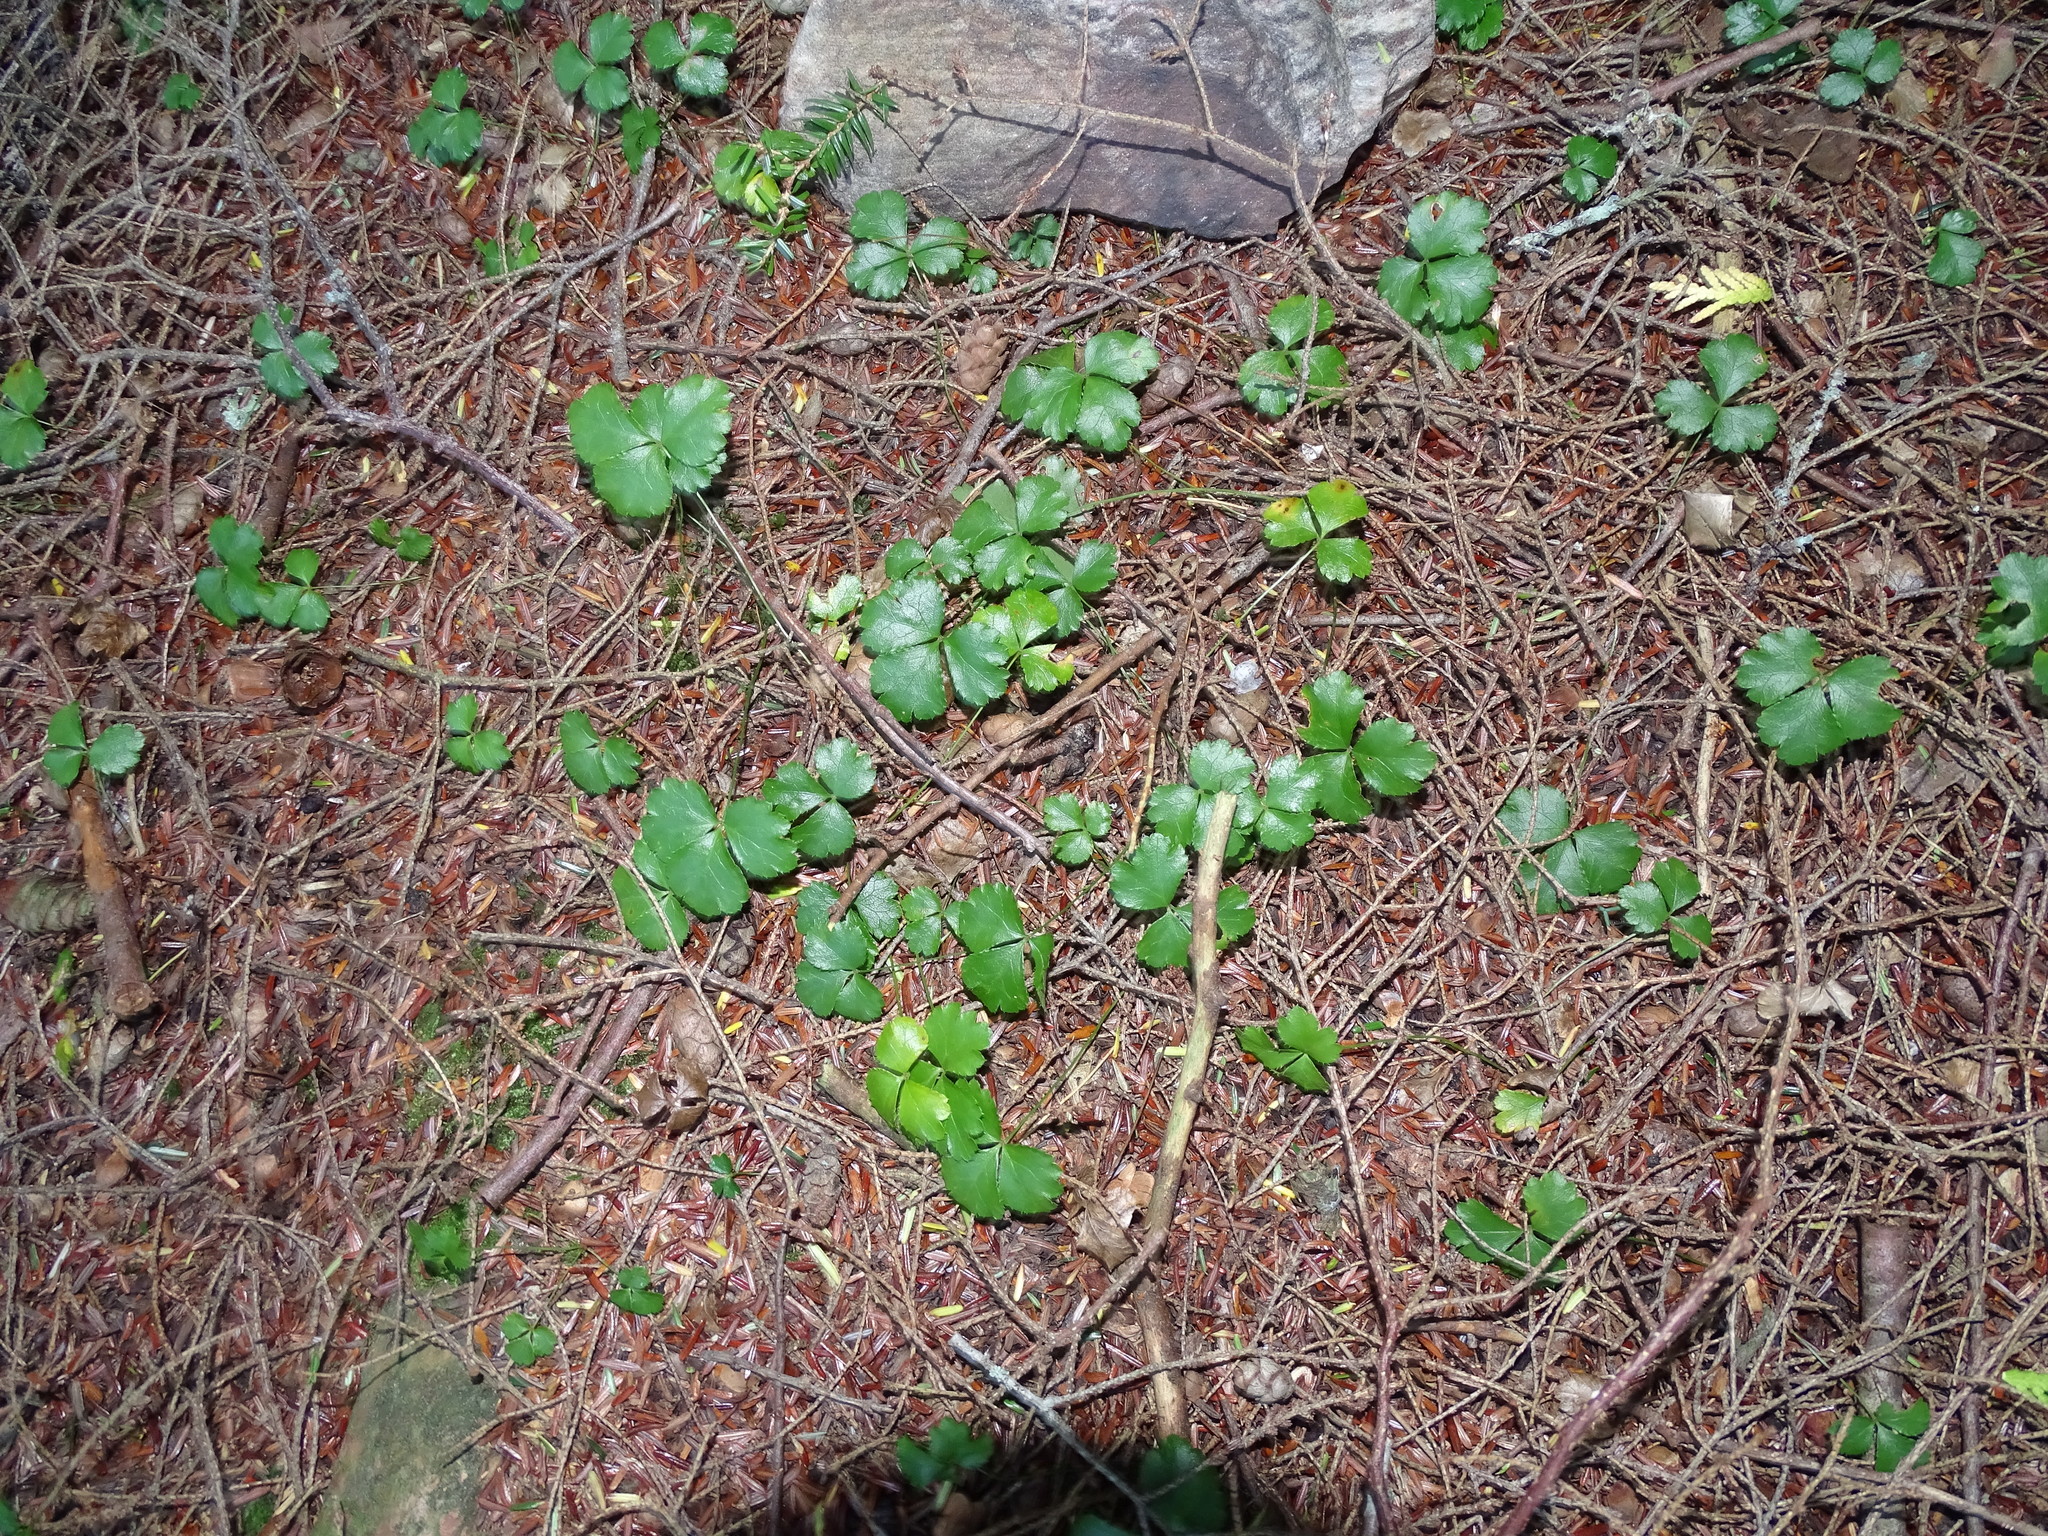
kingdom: Plantae
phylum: Tracheophyta
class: Magnoliopsida
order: Ranunculales
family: Ranunculaceae
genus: Coptis
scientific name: Coptis trifolia
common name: Canker-root
